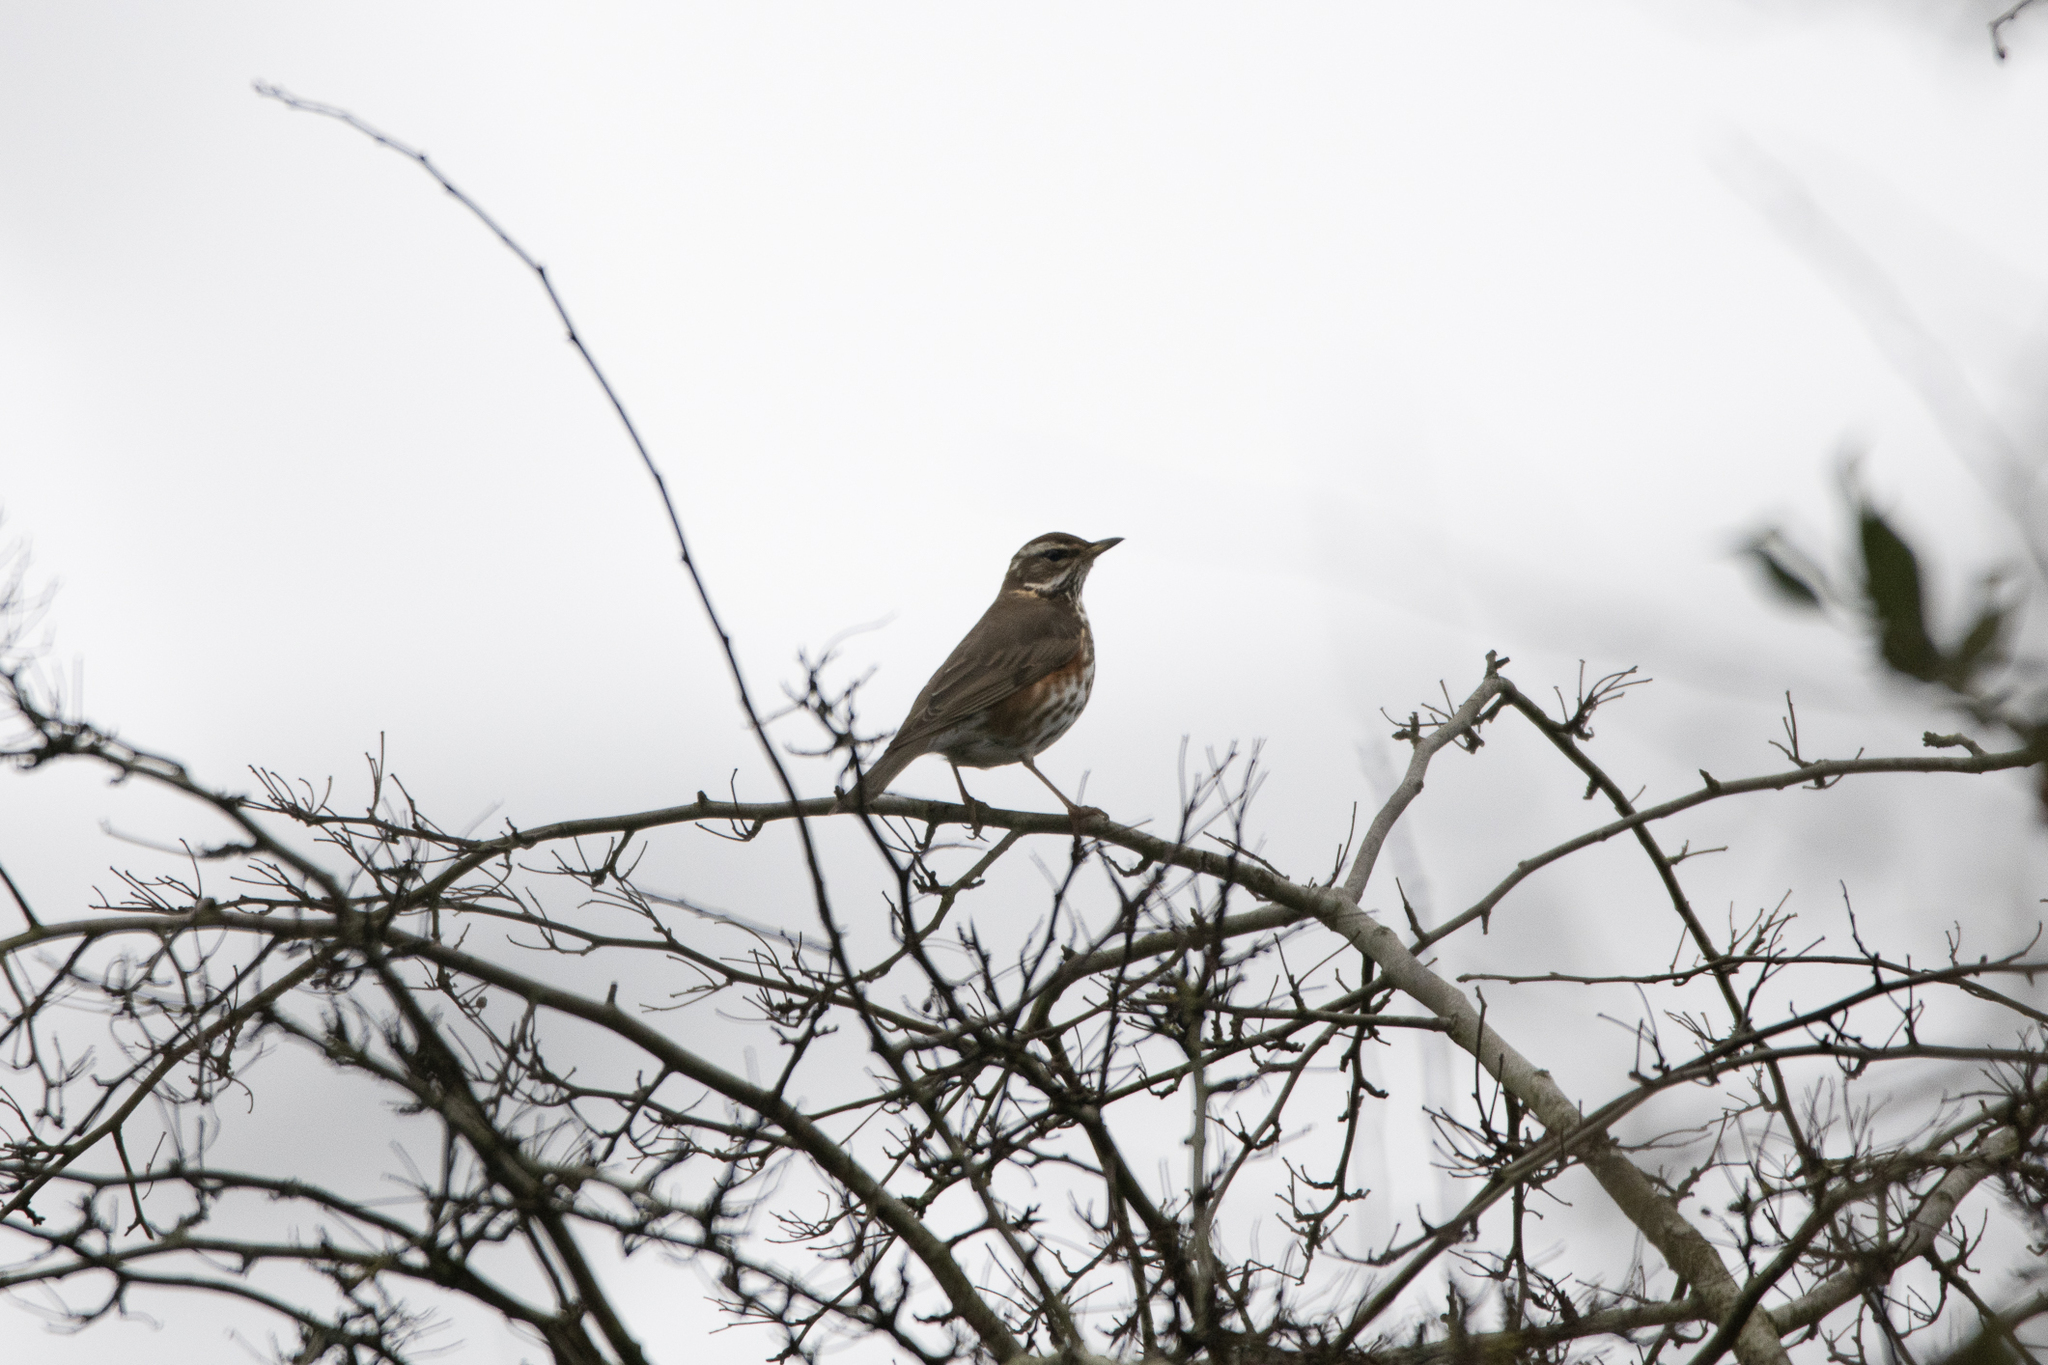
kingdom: Animalia
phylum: Chordata
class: Aves
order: Passeriformes
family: Turdidae
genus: Turdus
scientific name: Turdus iliacus
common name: Redwing
